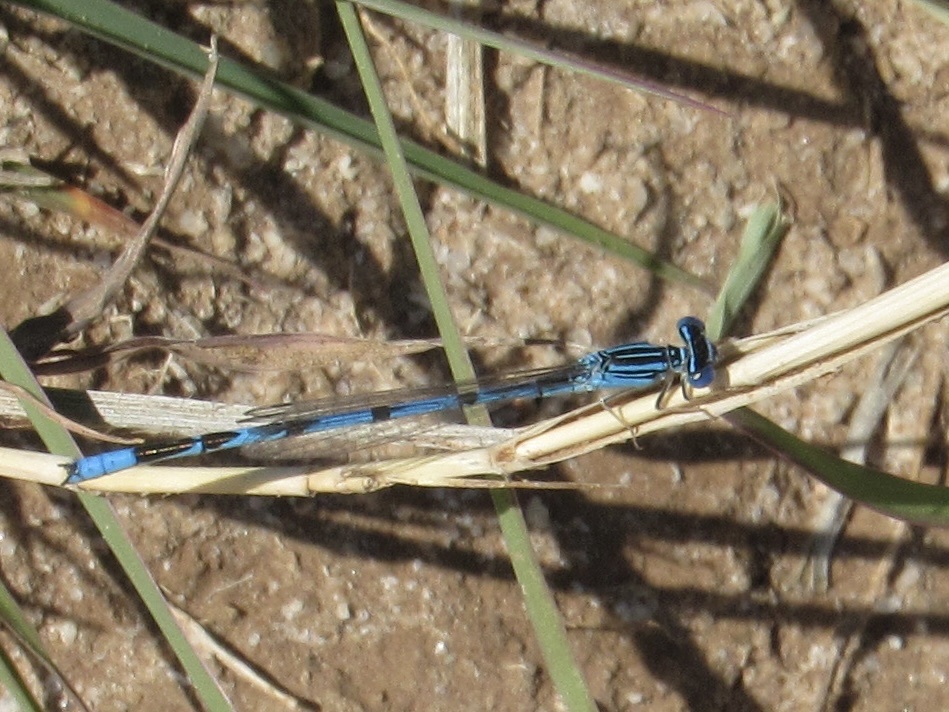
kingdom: Animalia
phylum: Arthropoda
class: Insecta
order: Odonata
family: Coenagrionidae
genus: Enallagma
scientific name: Enallagma basidens
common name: Double-striped bluet
